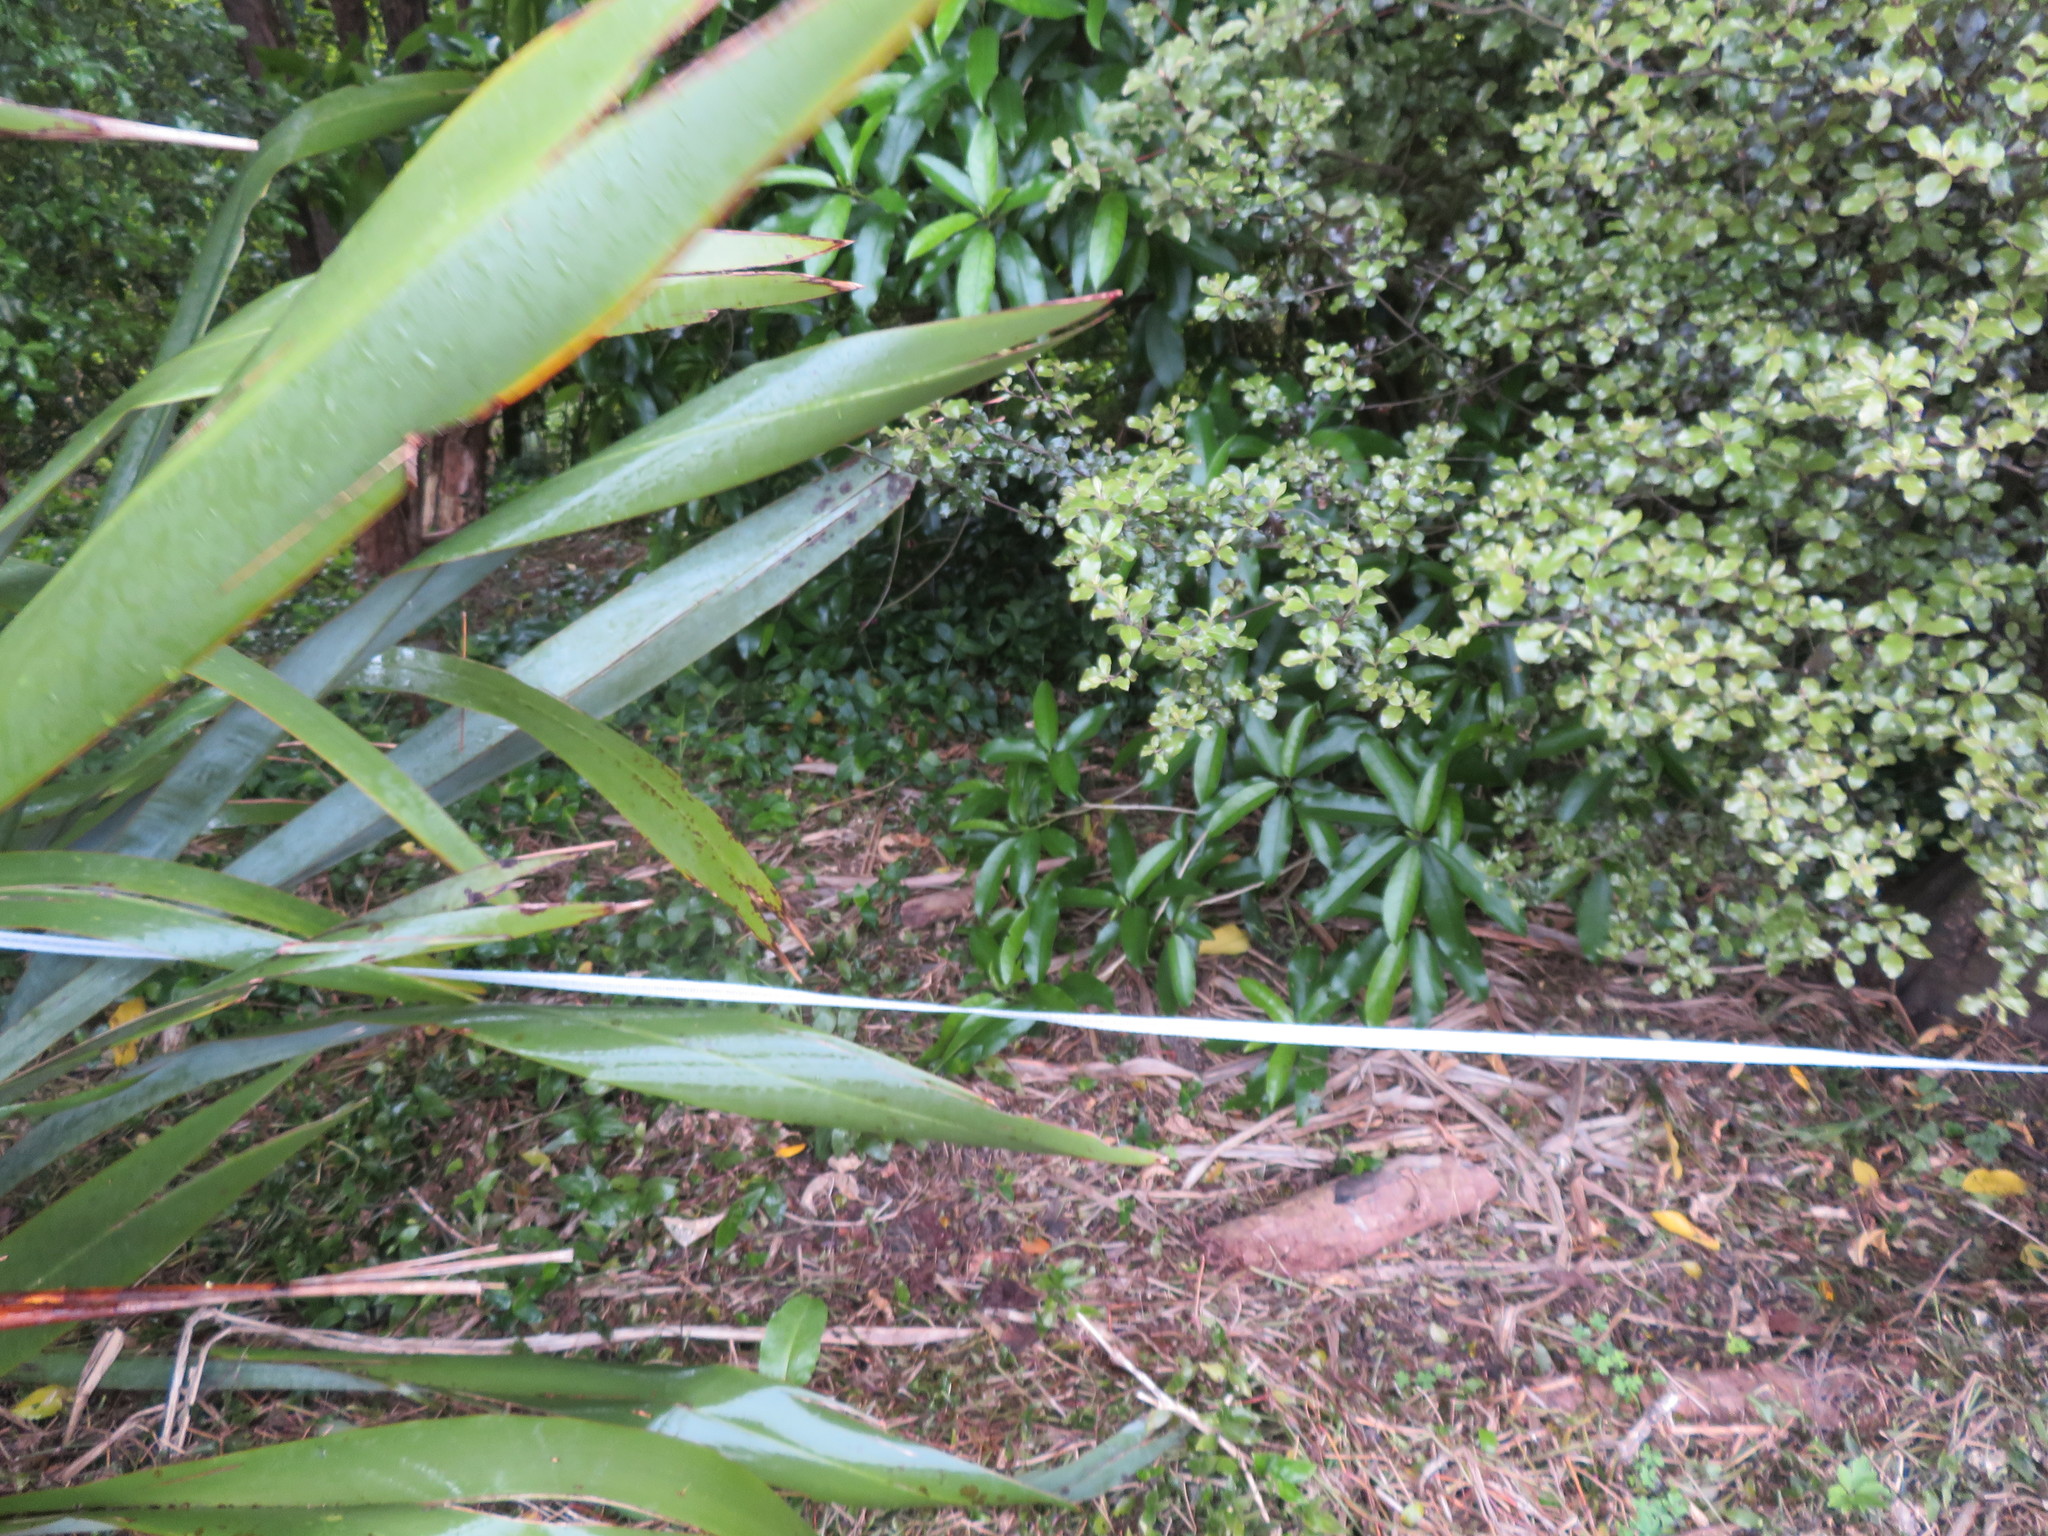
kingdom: Plantae
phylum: Tracheophyta
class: Liliopsida
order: Commelinales
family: Commelinaceae
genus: Tradescantia
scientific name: Tradescantia fluminensis
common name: Wandering-jew
